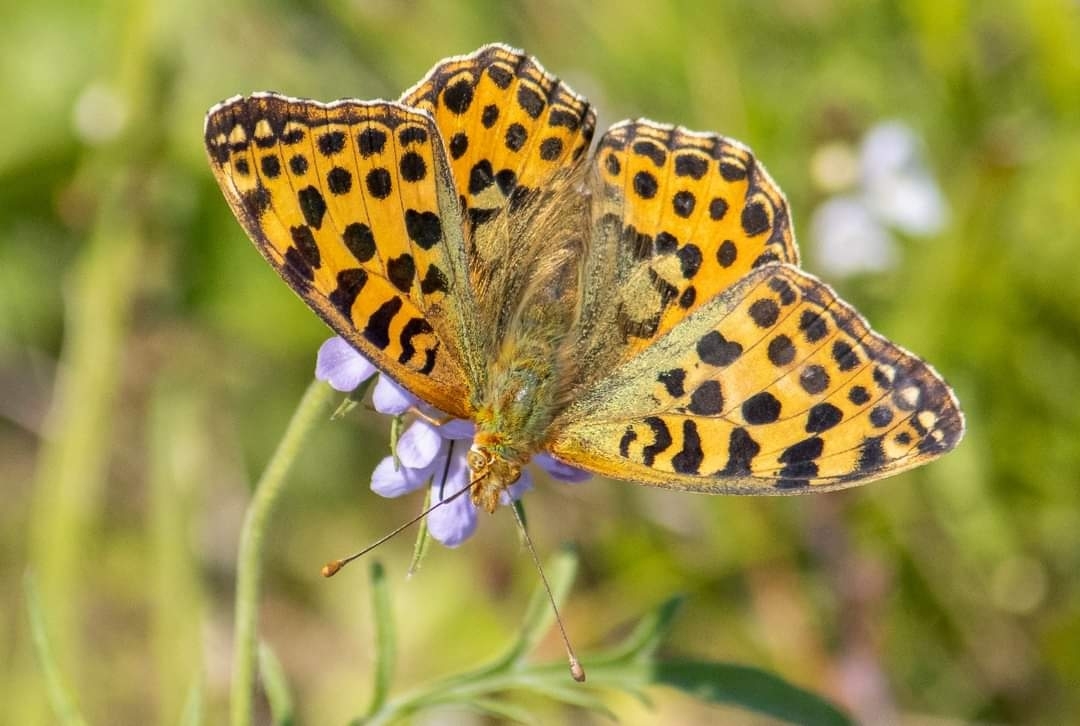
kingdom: Animalia
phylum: Arthropoda
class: Insecta
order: Lepidoptera
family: Nymphalidae
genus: Issoria
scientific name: Issoria lathonia
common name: Queen of spain fritillary
